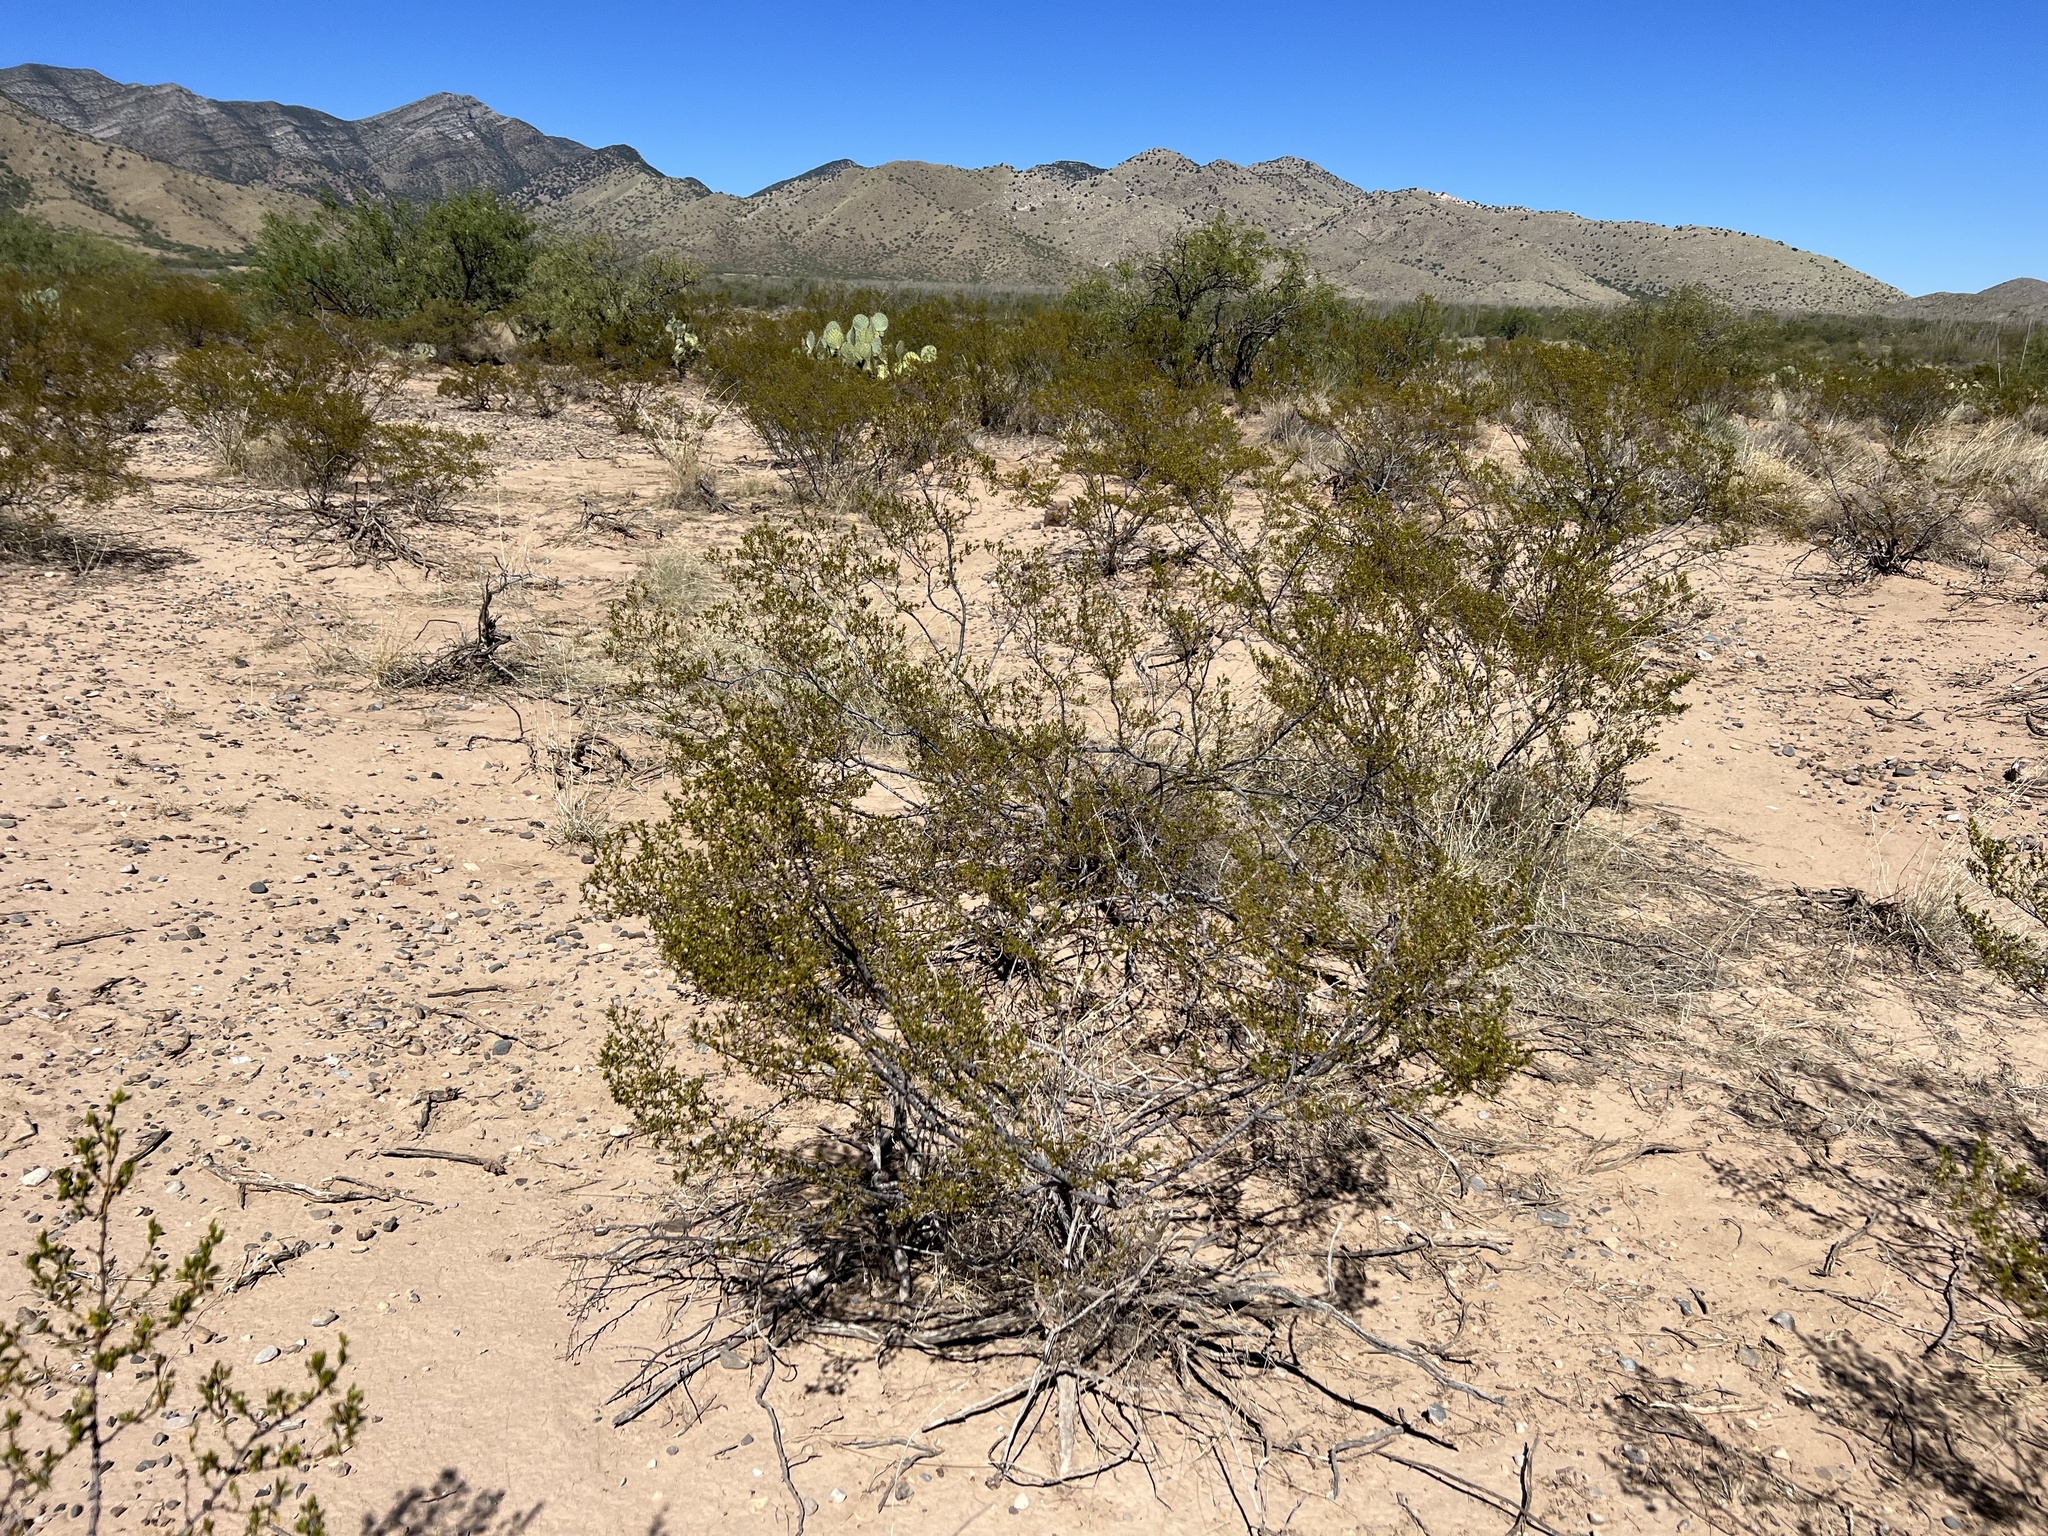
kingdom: Plantae
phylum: Tracheophyta
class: Magnoliopsida
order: Zygophyllales
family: Zygophyllaceae
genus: Larrea
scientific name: Larrea tridentata
